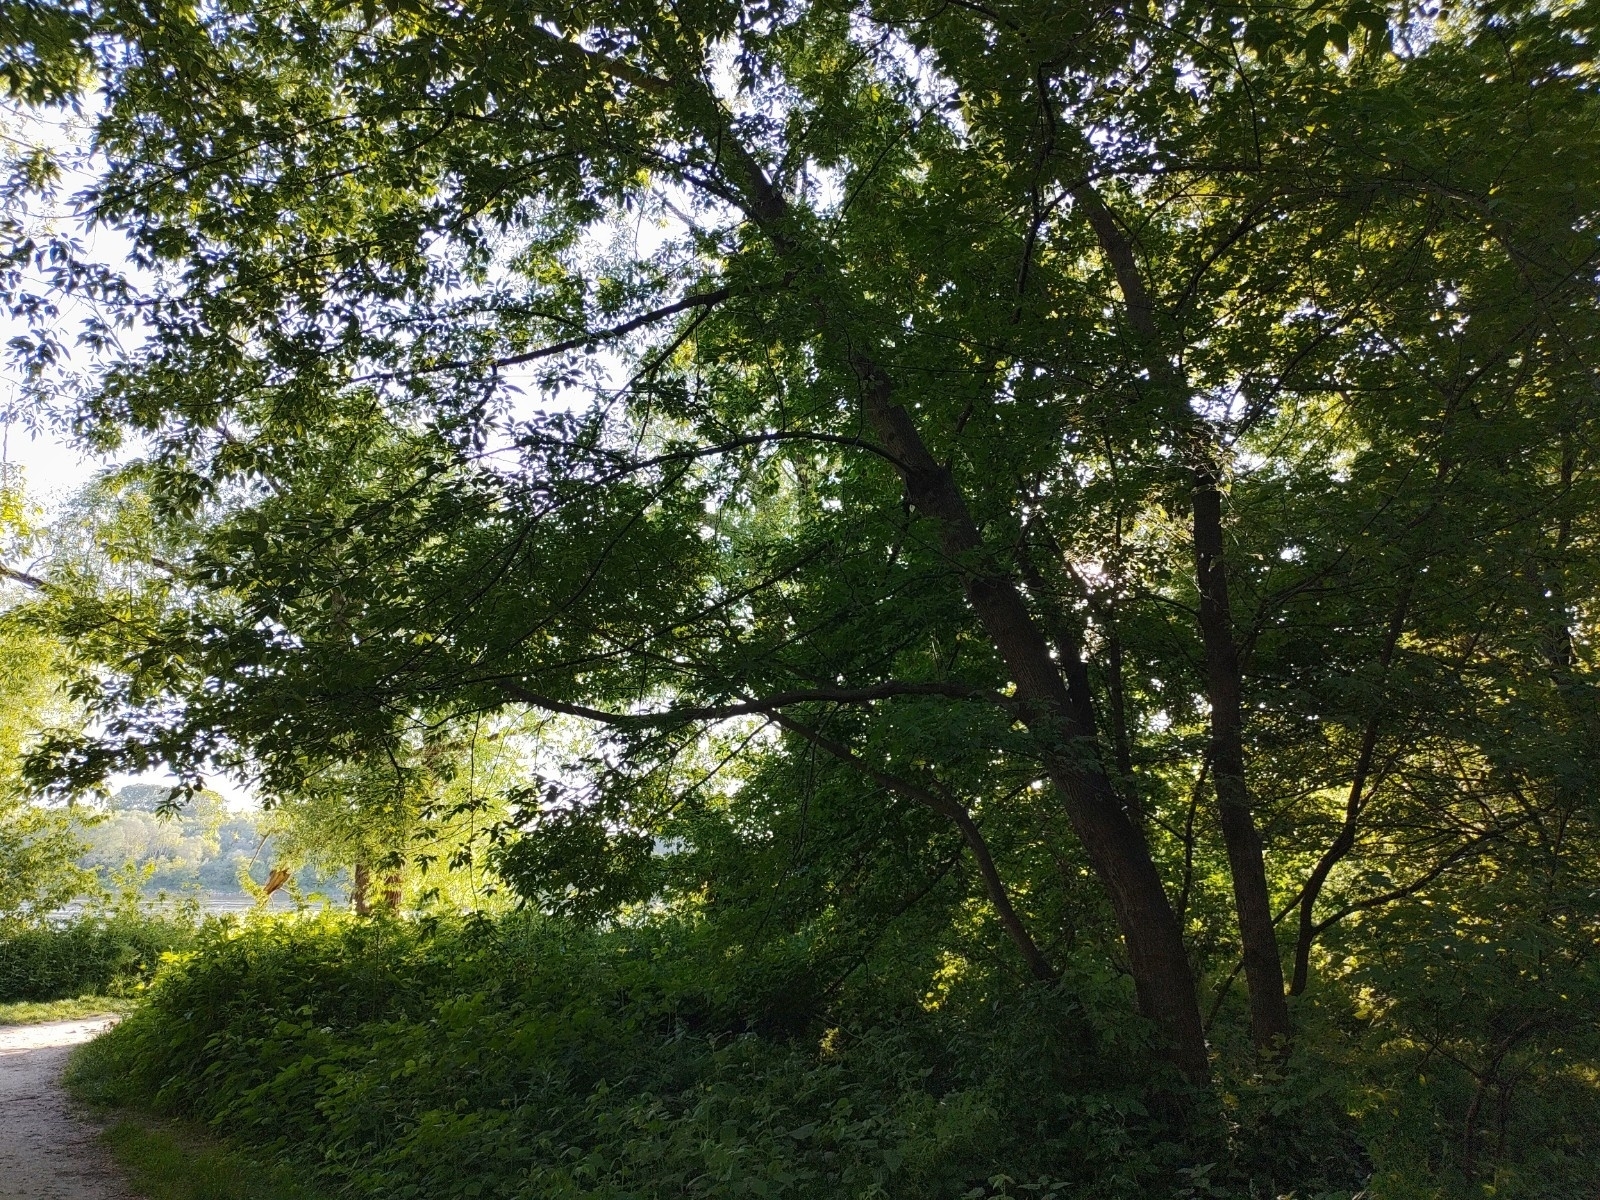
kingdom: Animalia
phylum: Chordata
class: Aves
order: Passeriformes
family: Phylloscopidae
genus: Phylloscopus
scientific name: Phylloscopus collybita
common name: Common chiffchaff
